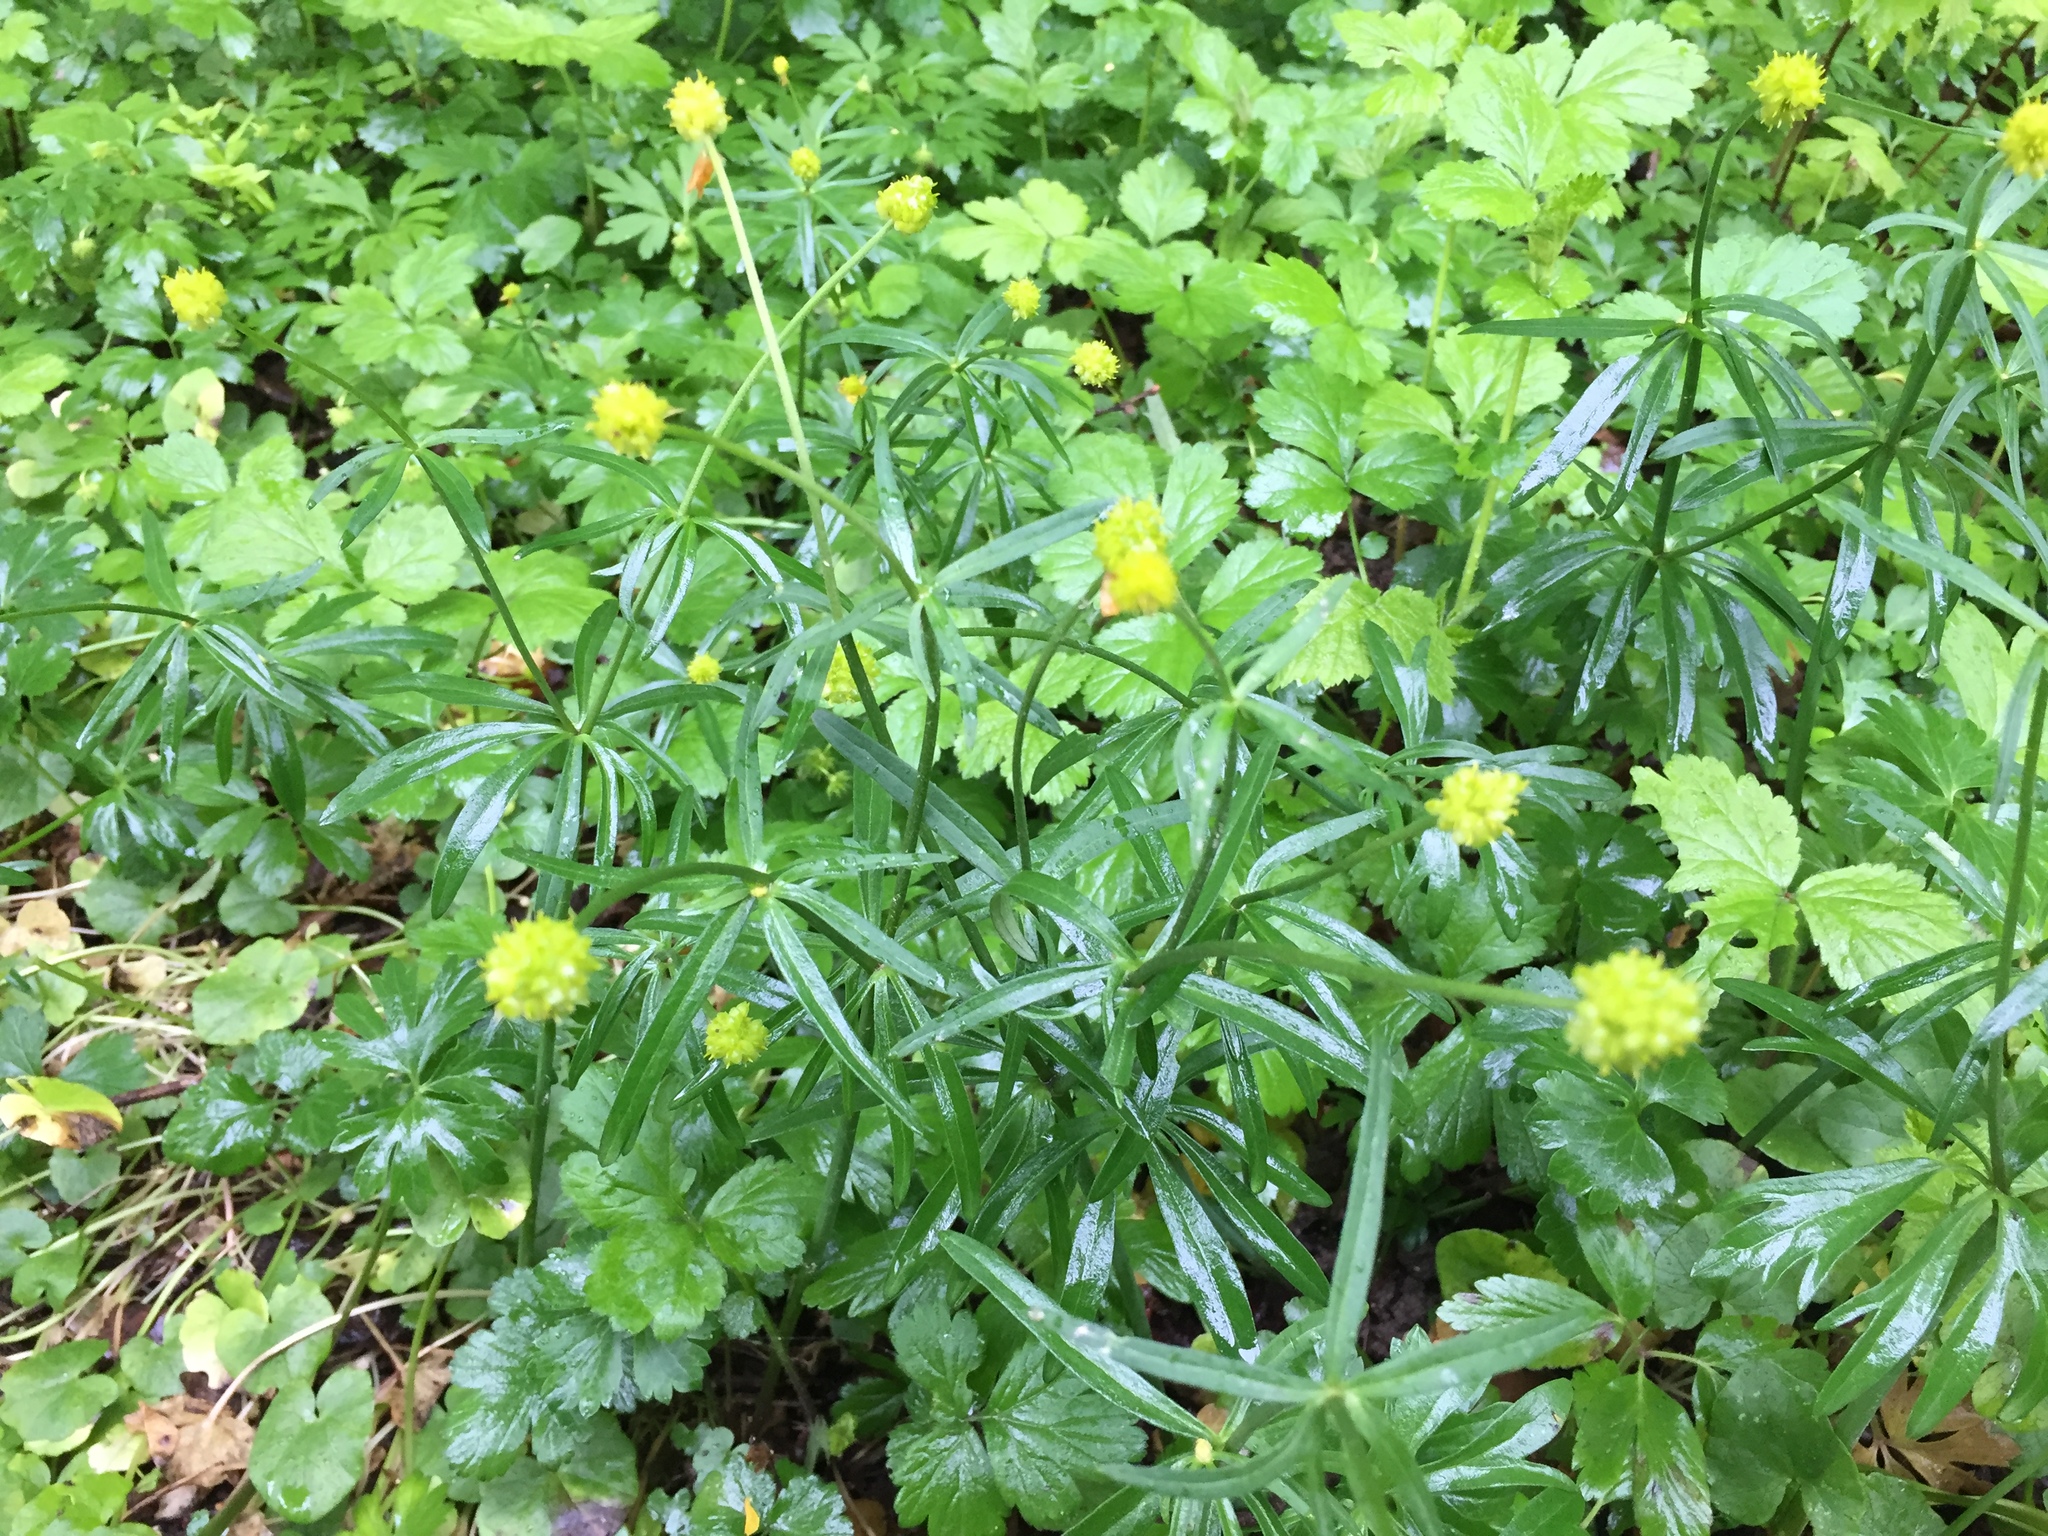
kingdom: Plantae
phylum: Tracheophyta
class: Magnoliopsida
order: Ranunculales
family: Ranunculaceae
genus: Ranunculus
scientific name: Ranunculus auricomus
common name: Goldilocks buttercup
